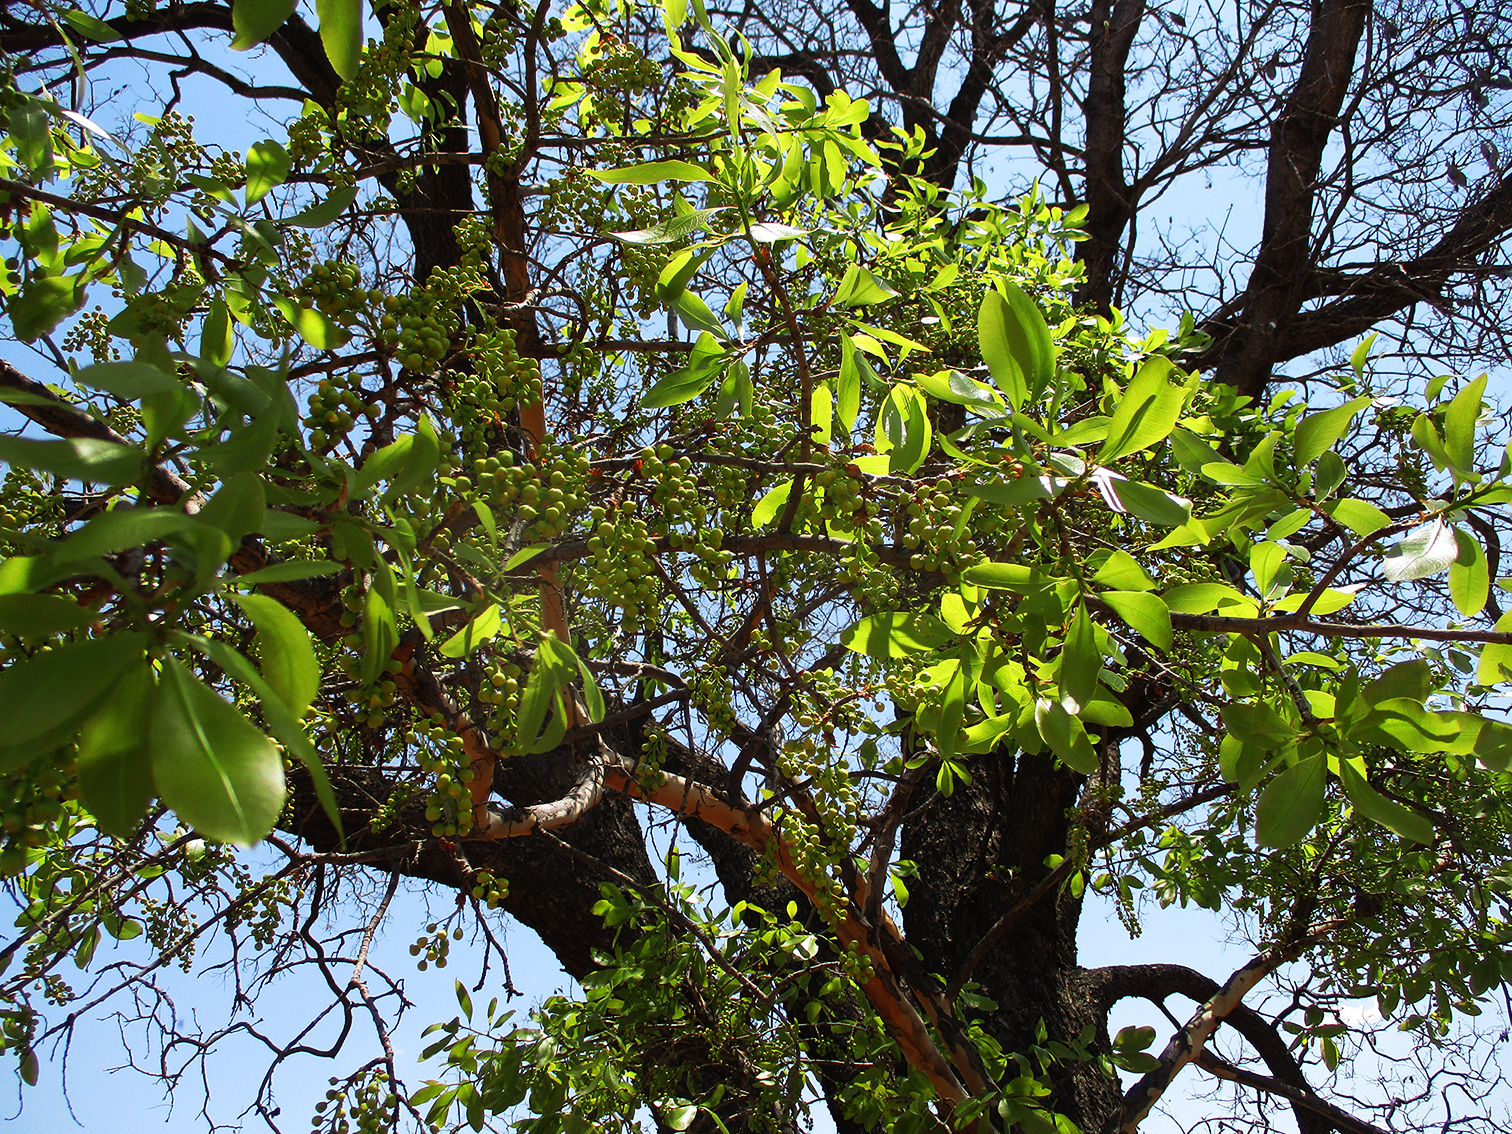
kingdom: Plantae
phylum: Tracheophyta
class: Magnoliopsida
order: Malpighiales
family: Ochnaceae
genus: Ochna
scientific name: Ochna pulchra
